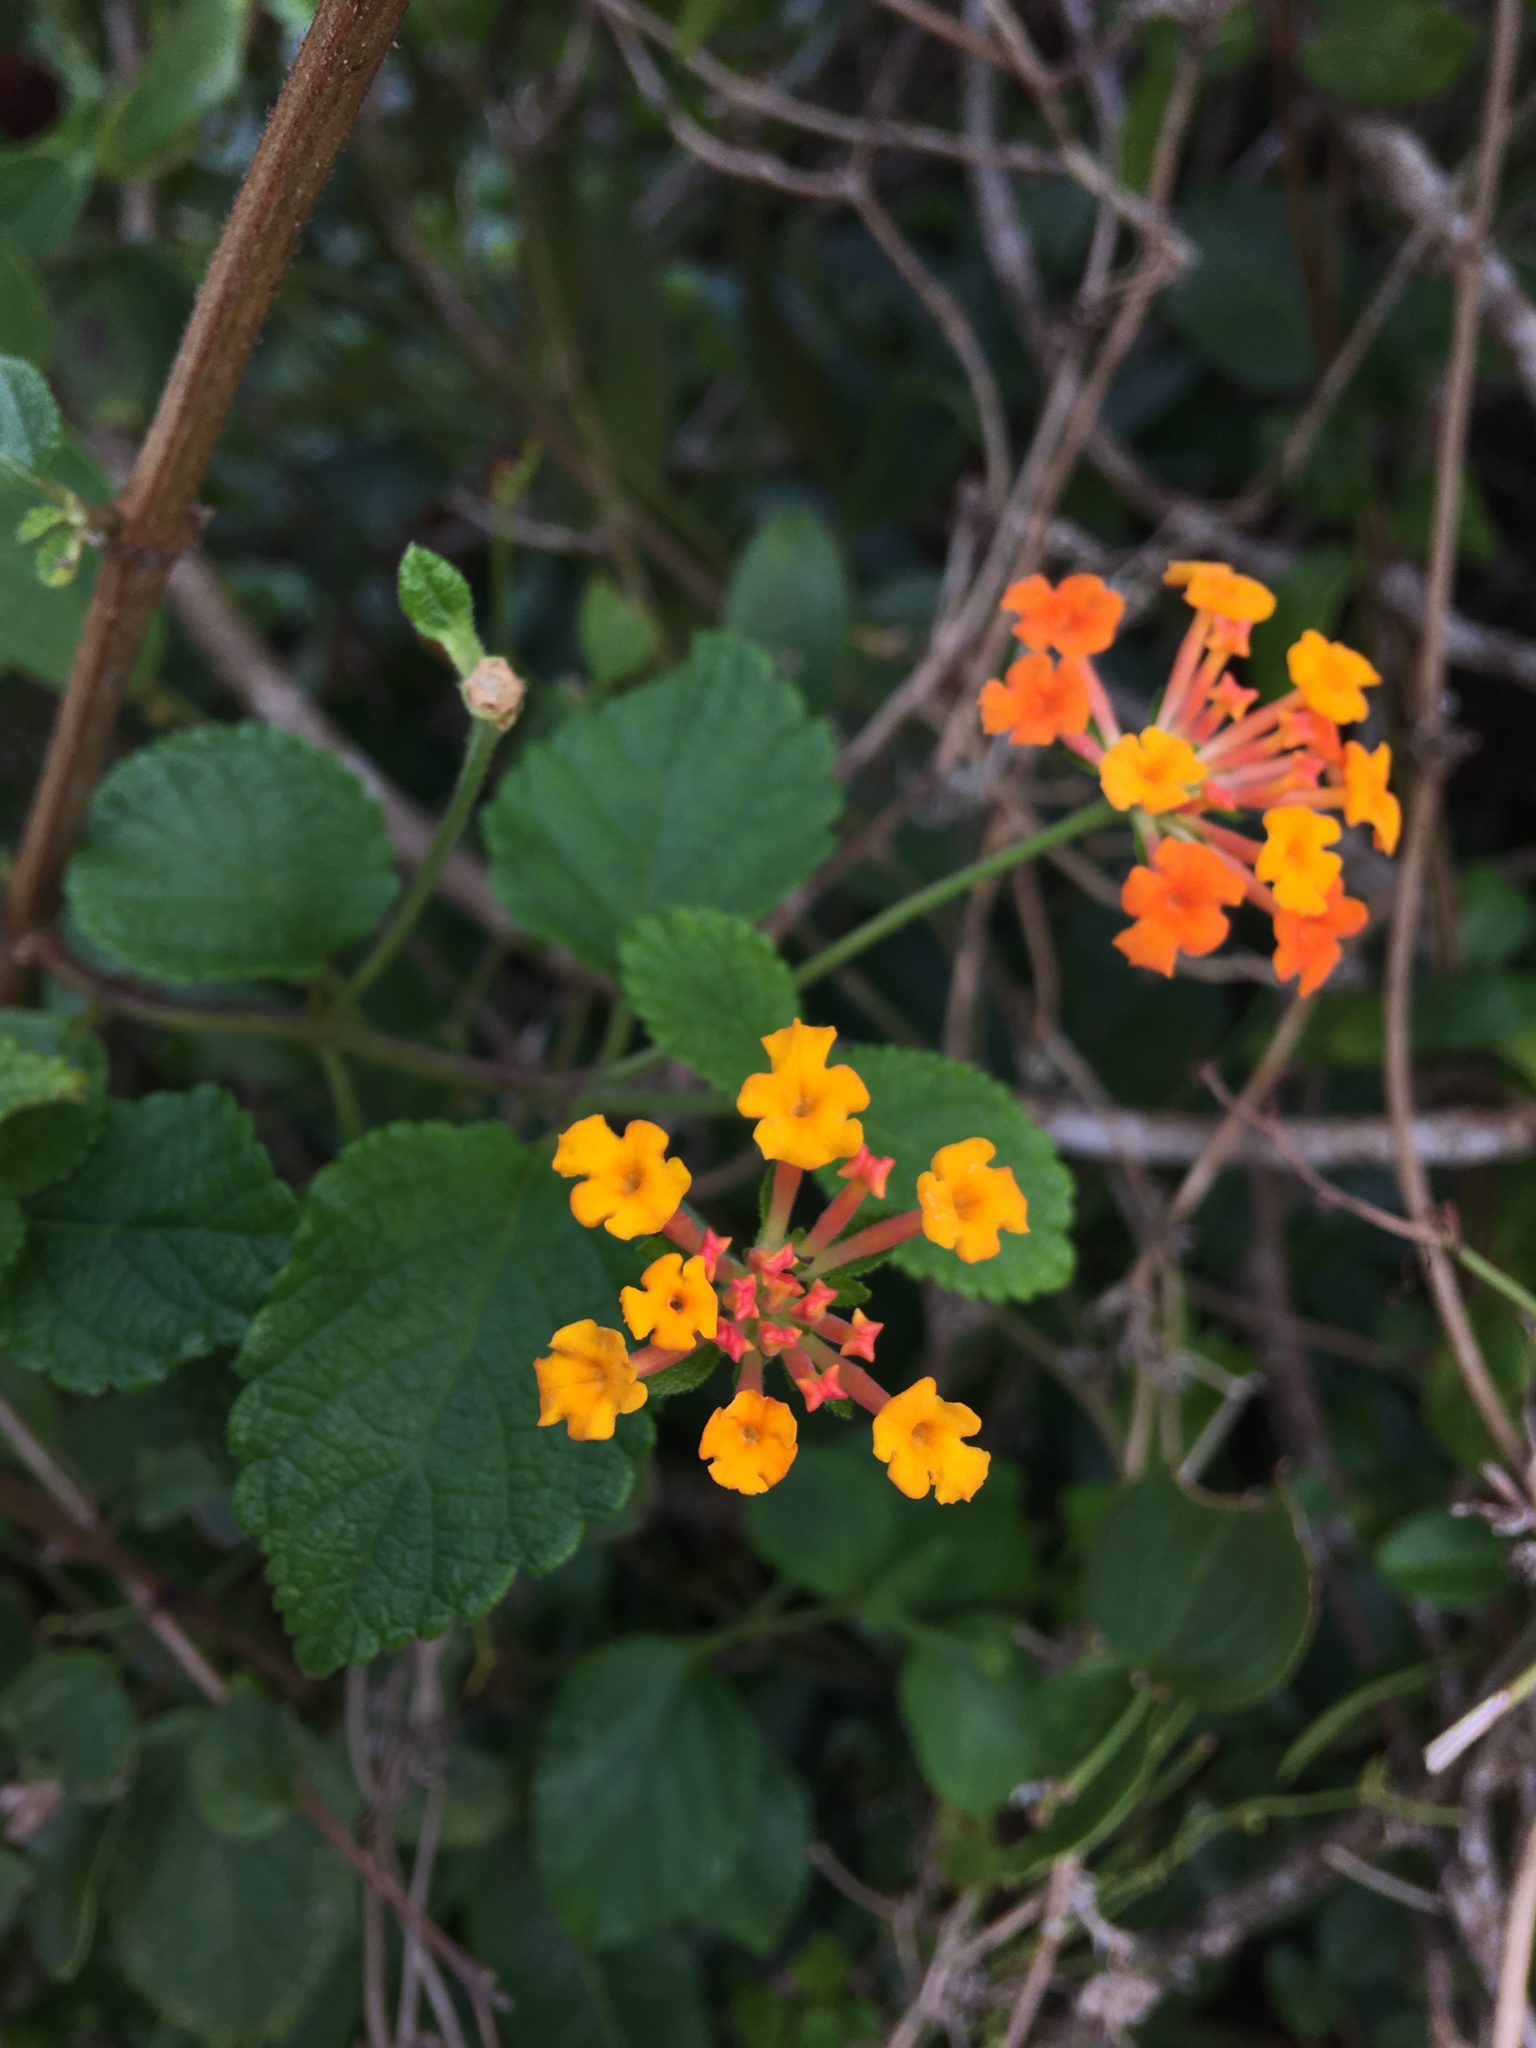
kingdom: Plantae
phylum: Tracheophyta
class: Magnoliopsida
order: Lamiales
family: Verbenaceae
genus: Lantana
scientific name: Lantana camara
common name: Lantana
